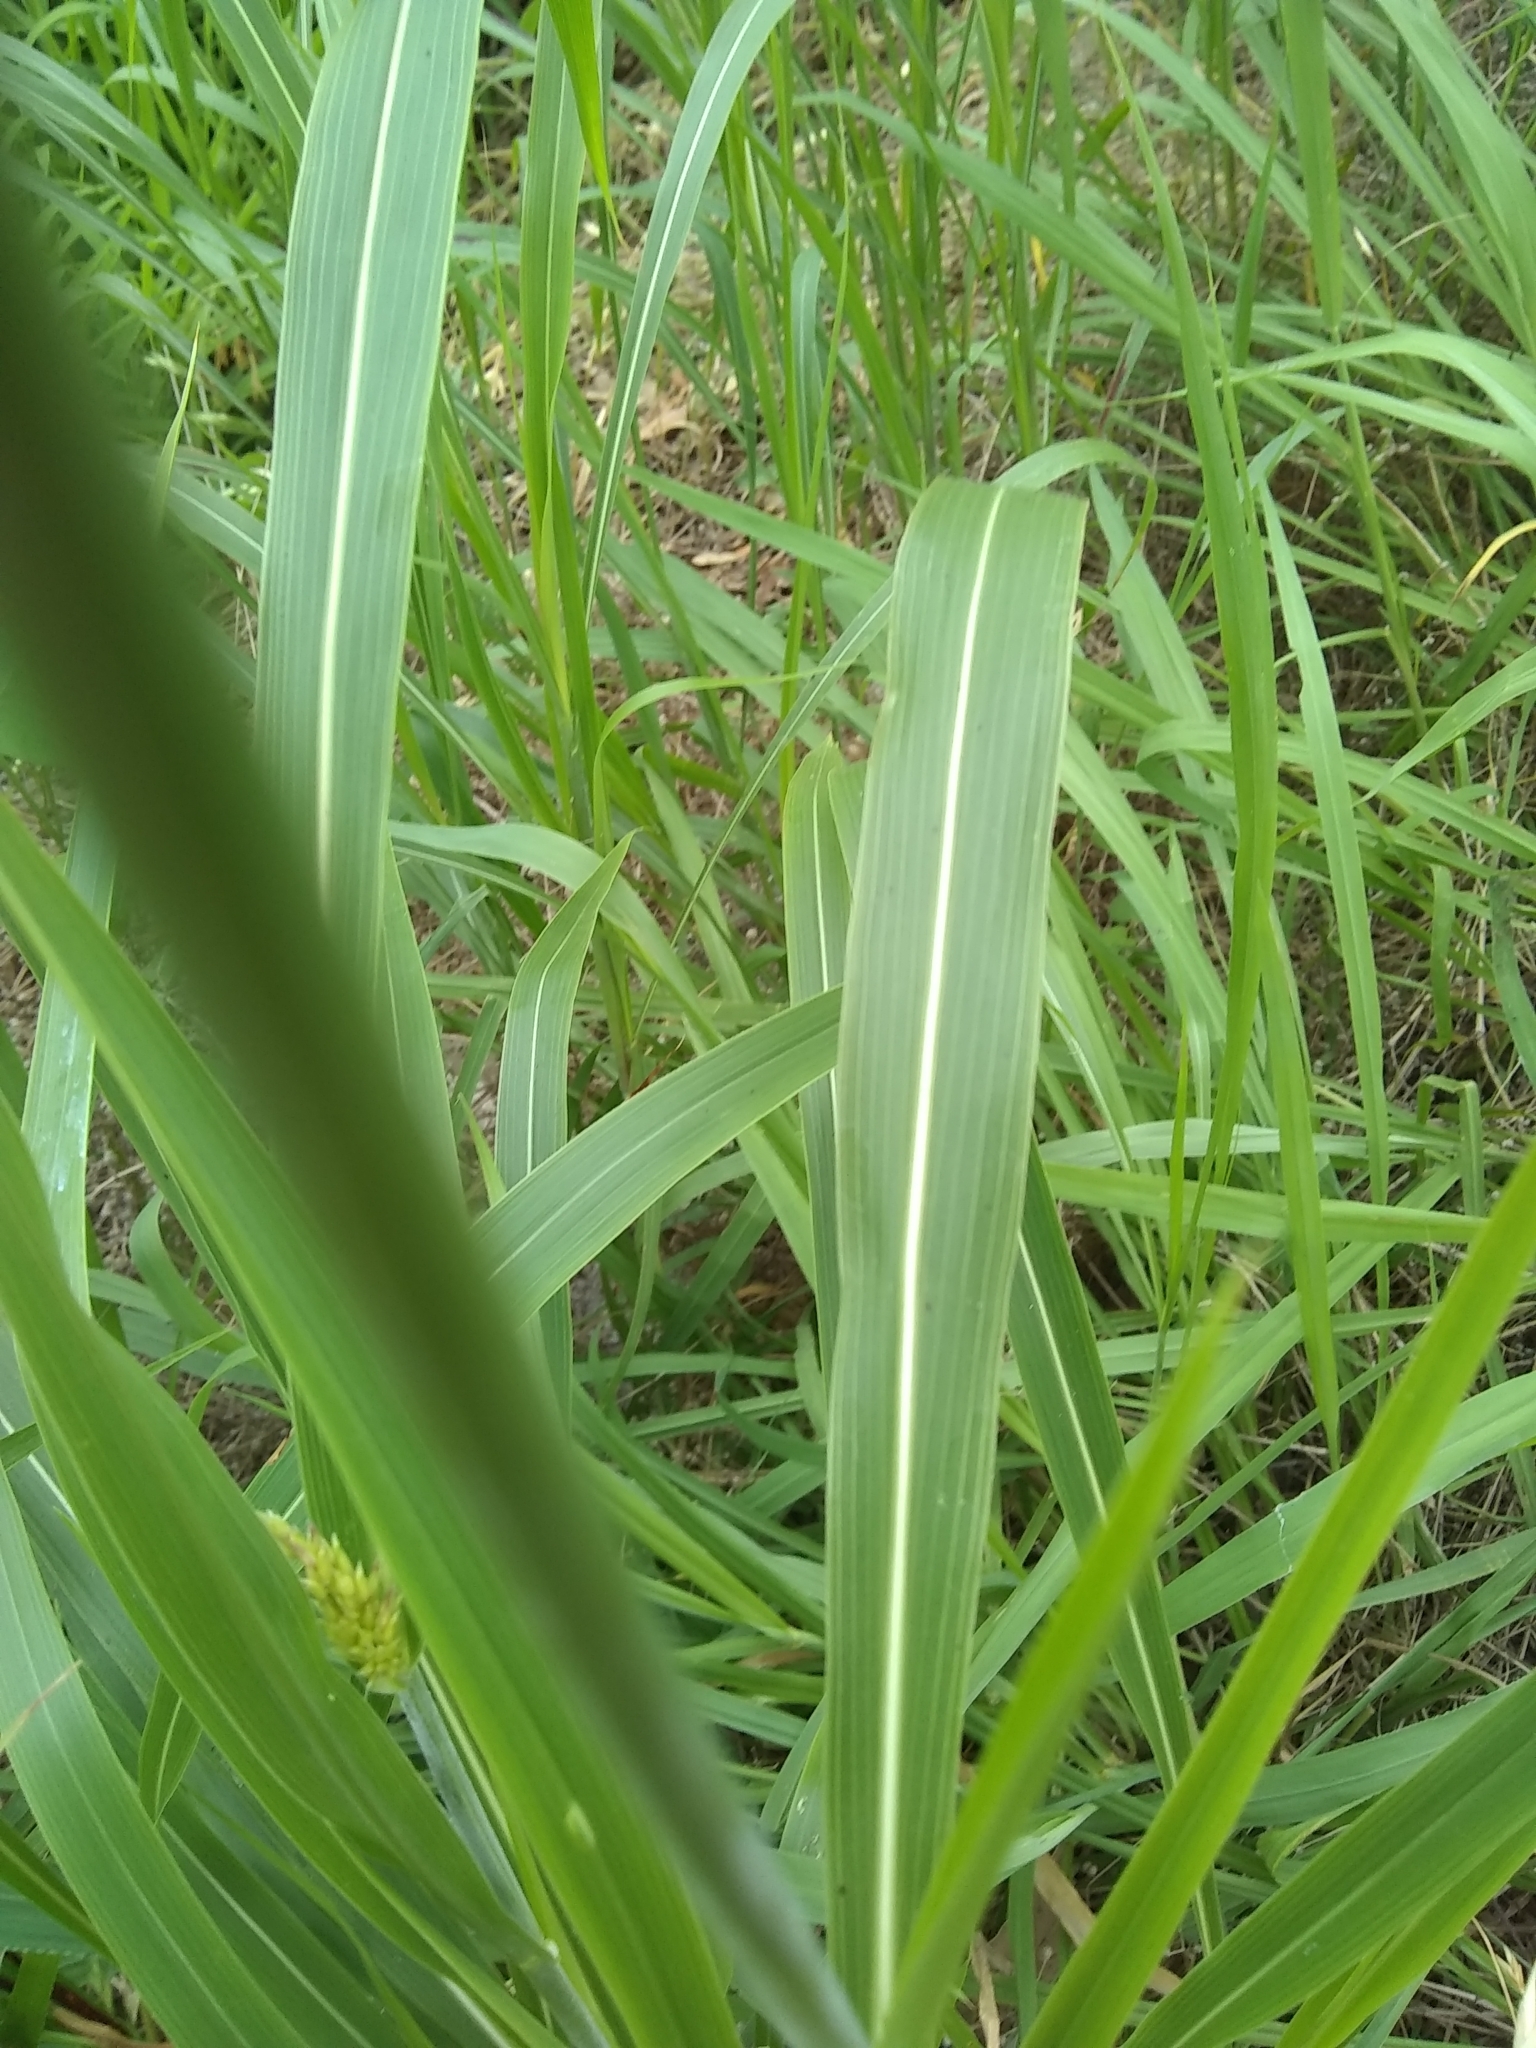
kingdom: Plantae
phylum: Tracheophyta
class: Liliopsida
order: Poales
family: Poaceae
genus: Sorghum
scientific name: Sorghum halepense
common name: Johnson-grass
